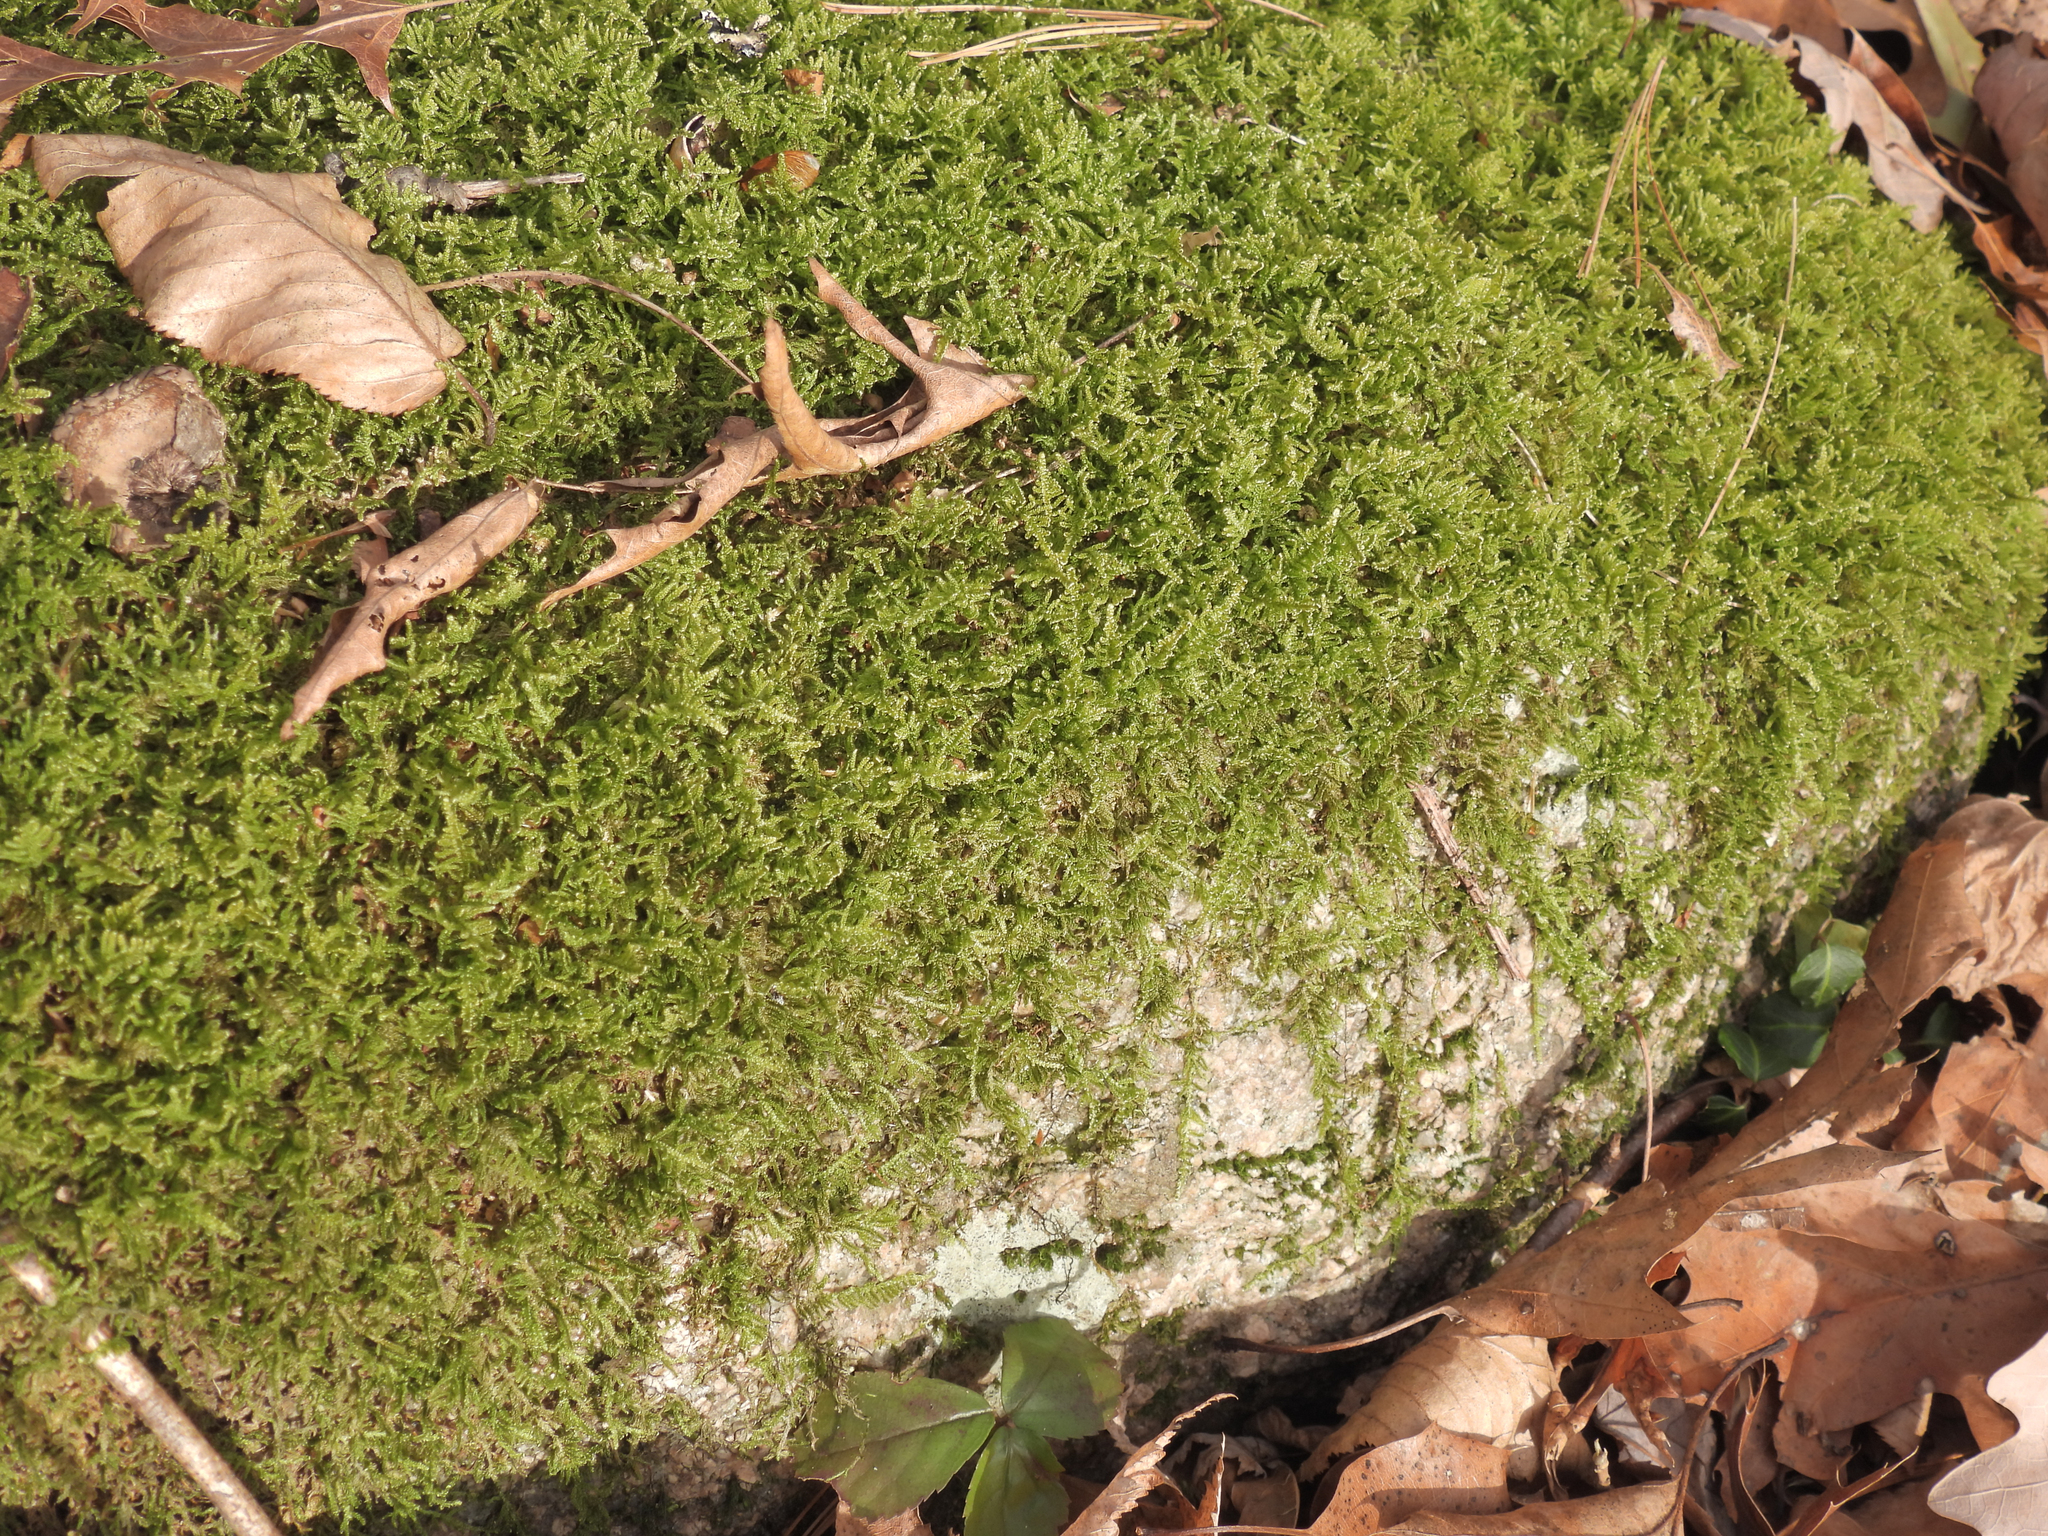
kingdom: Plantae
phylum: Bryophyta
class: Bryopsida
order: Hypnales
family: Callicladiaceae
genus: Callicladium
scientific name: Callicladium imponens
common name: Brocade moss
